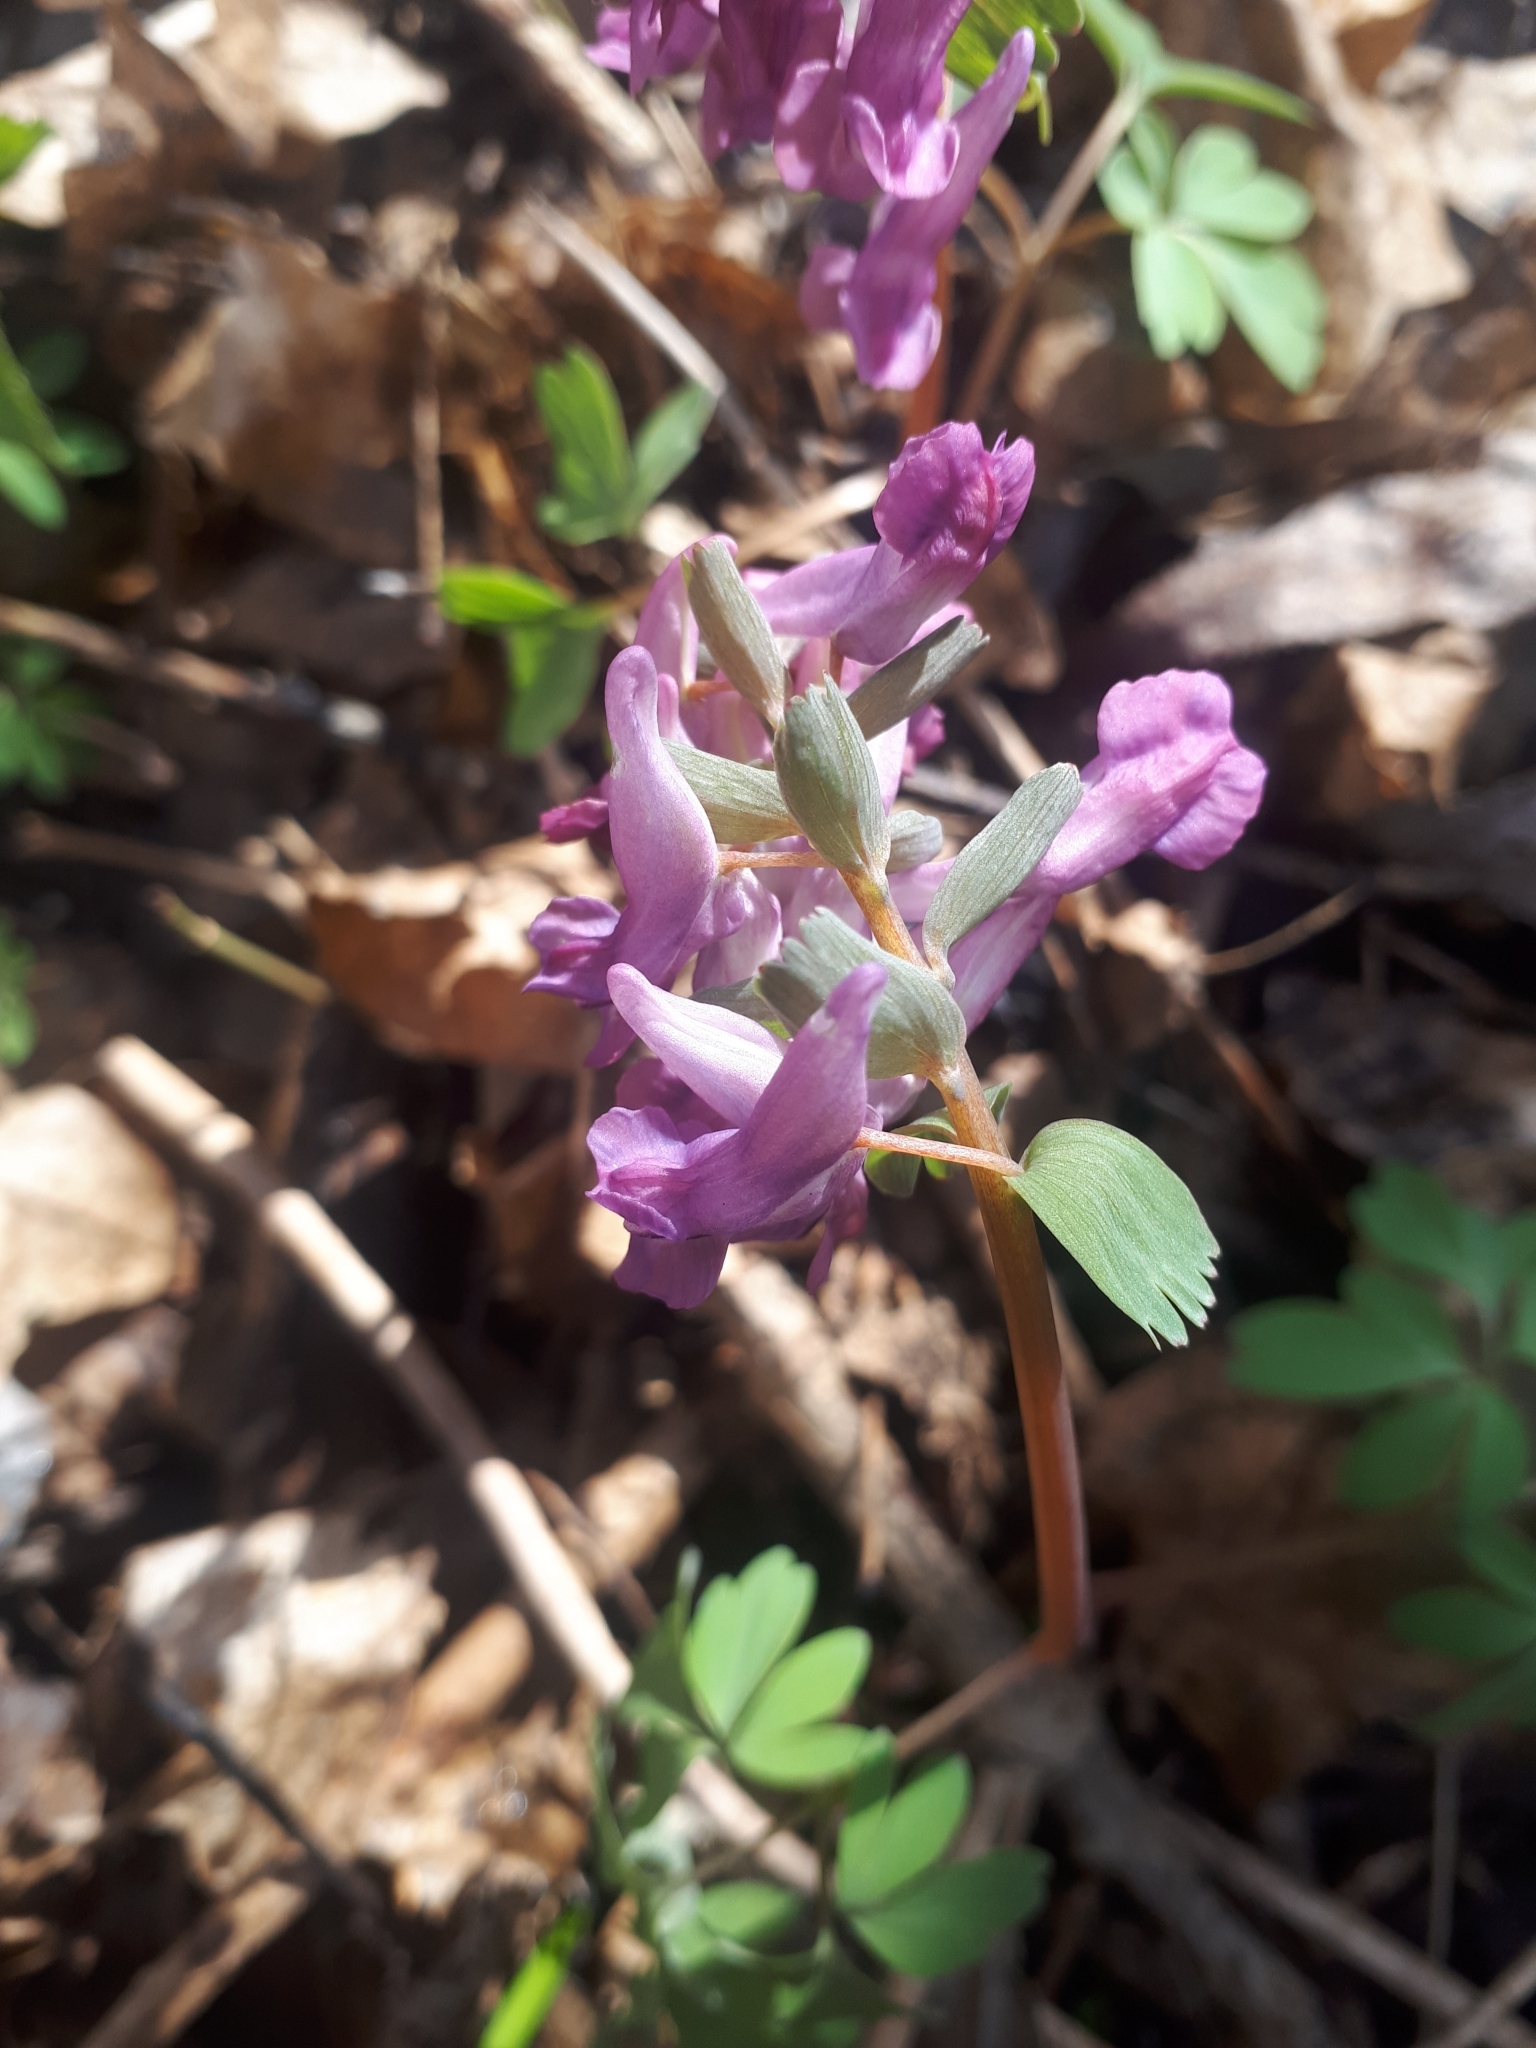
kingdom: Plantae
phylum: Tracheophyta
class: Magnoliopsida
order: Ranunculales
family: Papaveraceae
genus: Corydalis
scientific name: Corydalis solida
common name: Bird-in-a-bush
